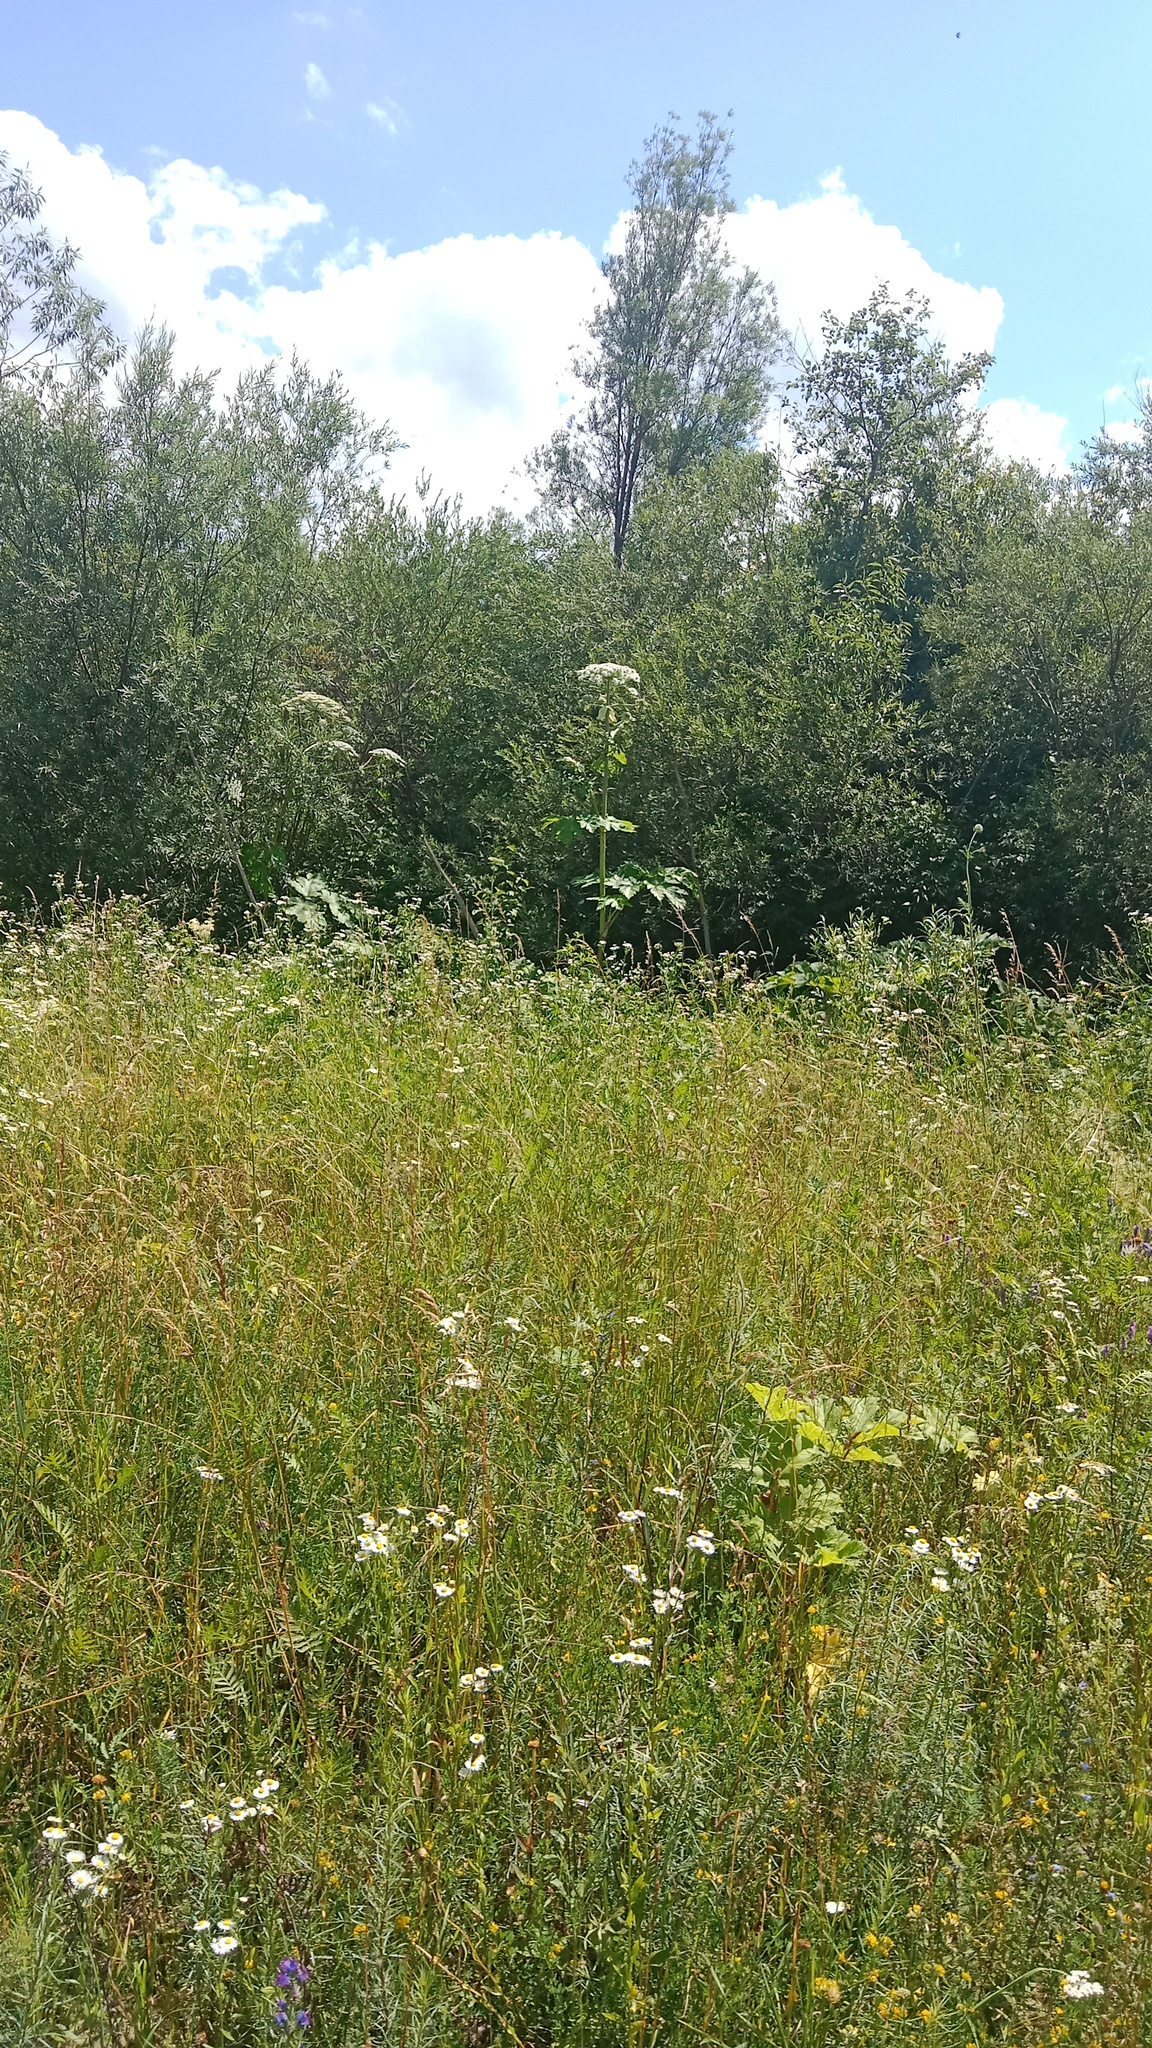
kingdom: Plantae
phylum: Tracheophyta
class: Magnoliopsida
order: Apiales
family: Apiaceae
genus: Heracleum
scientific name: Heracleum sosnowskyi
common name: Sosnowsky's hogweed
